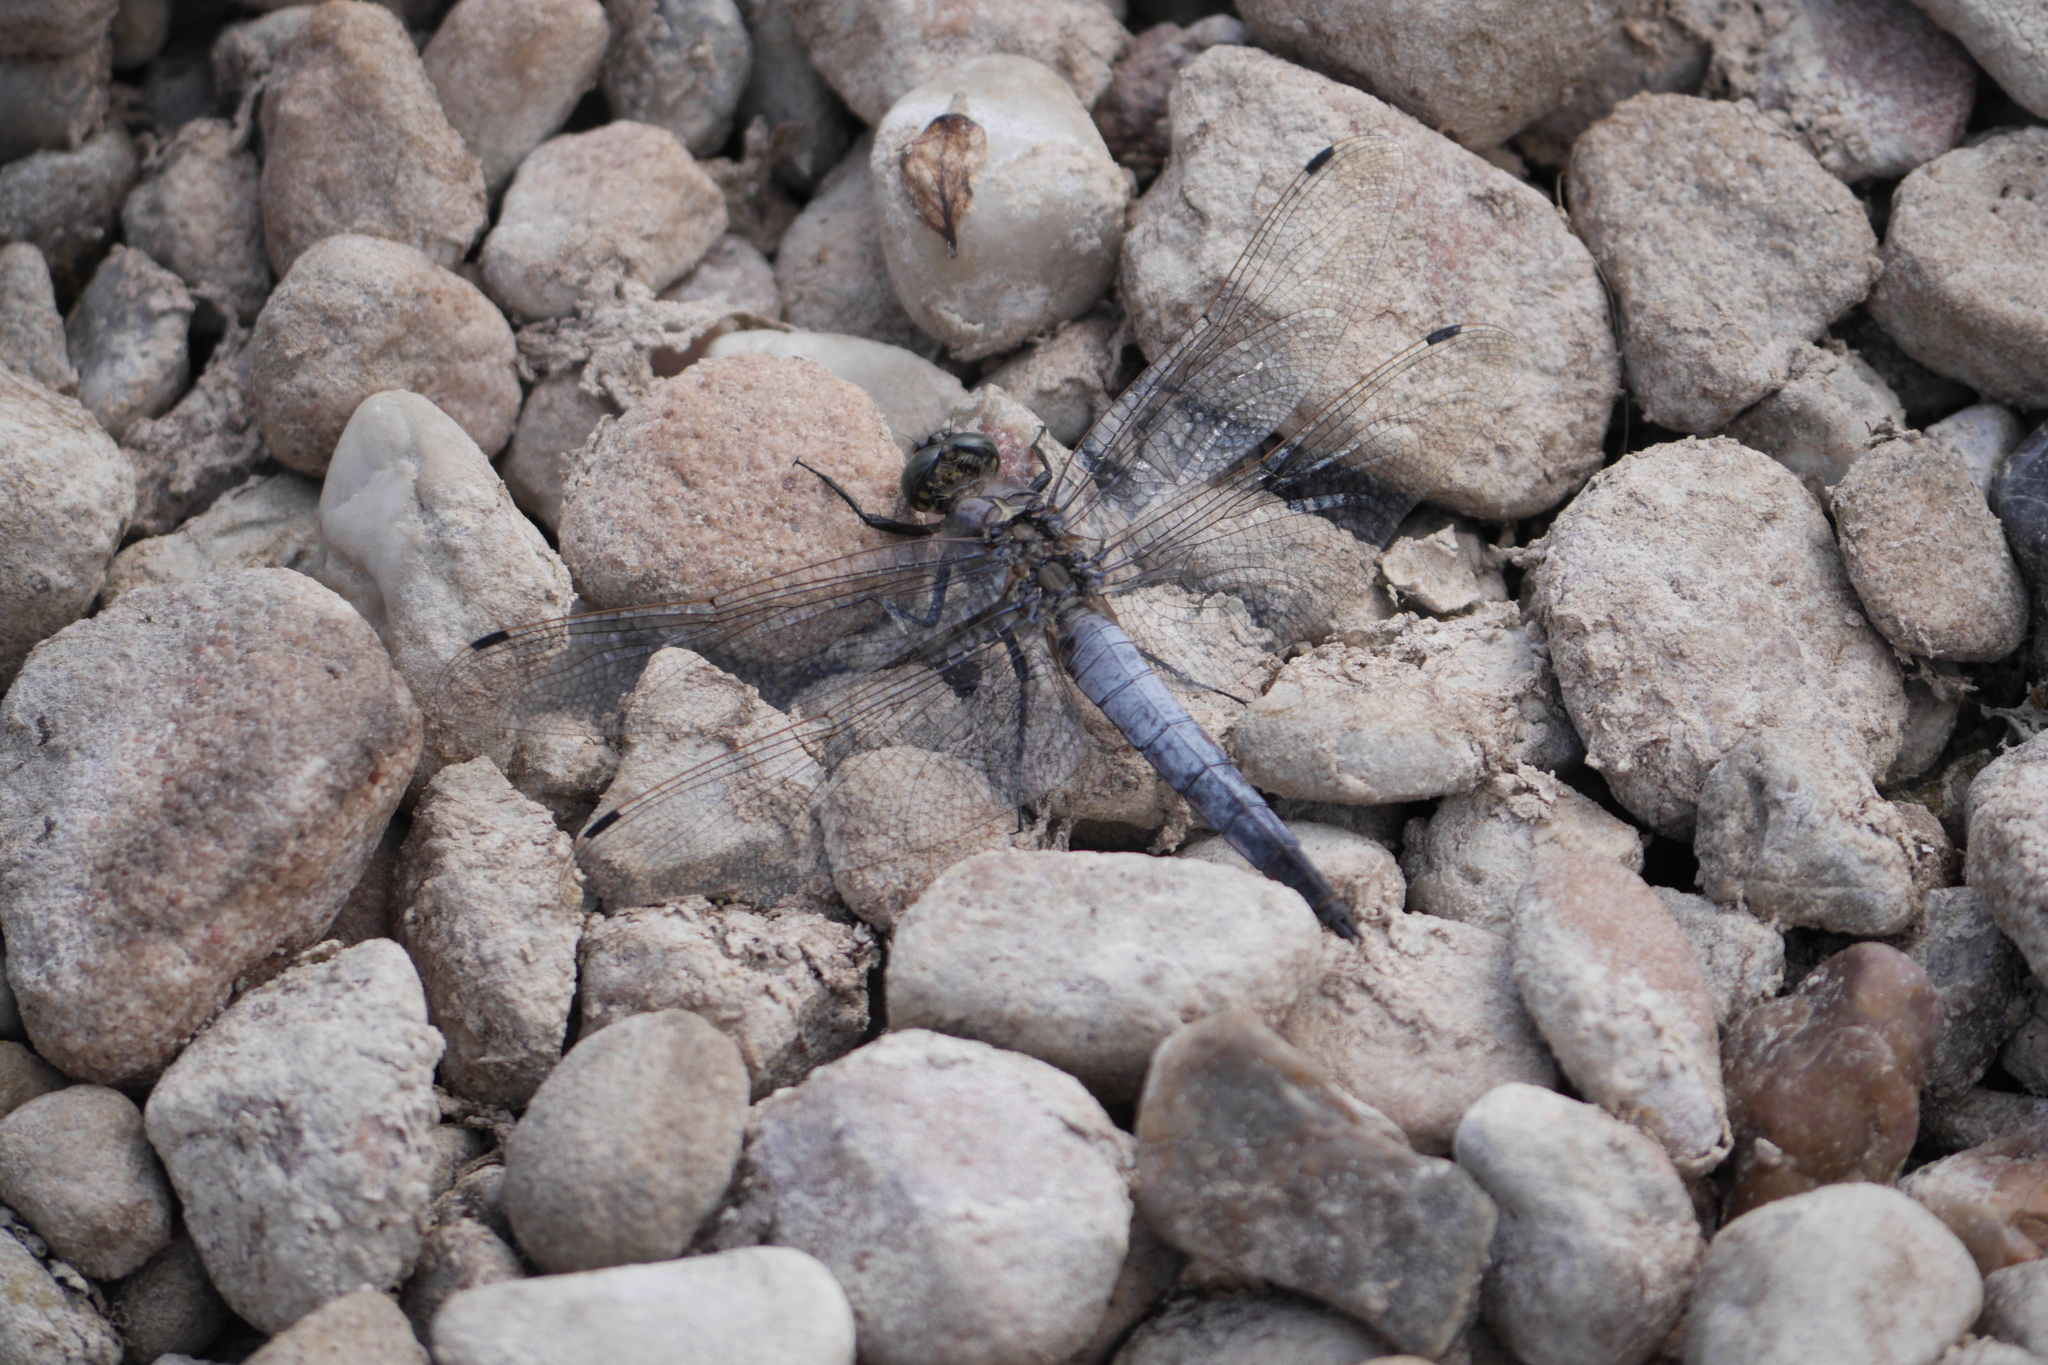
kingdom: Animalia
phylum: Arthropoda
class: Insecta
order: Odonata
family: Libellulidae
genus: Orthetrum
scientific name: Orthetrum cancellatum
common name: Black-tailed skimmer
